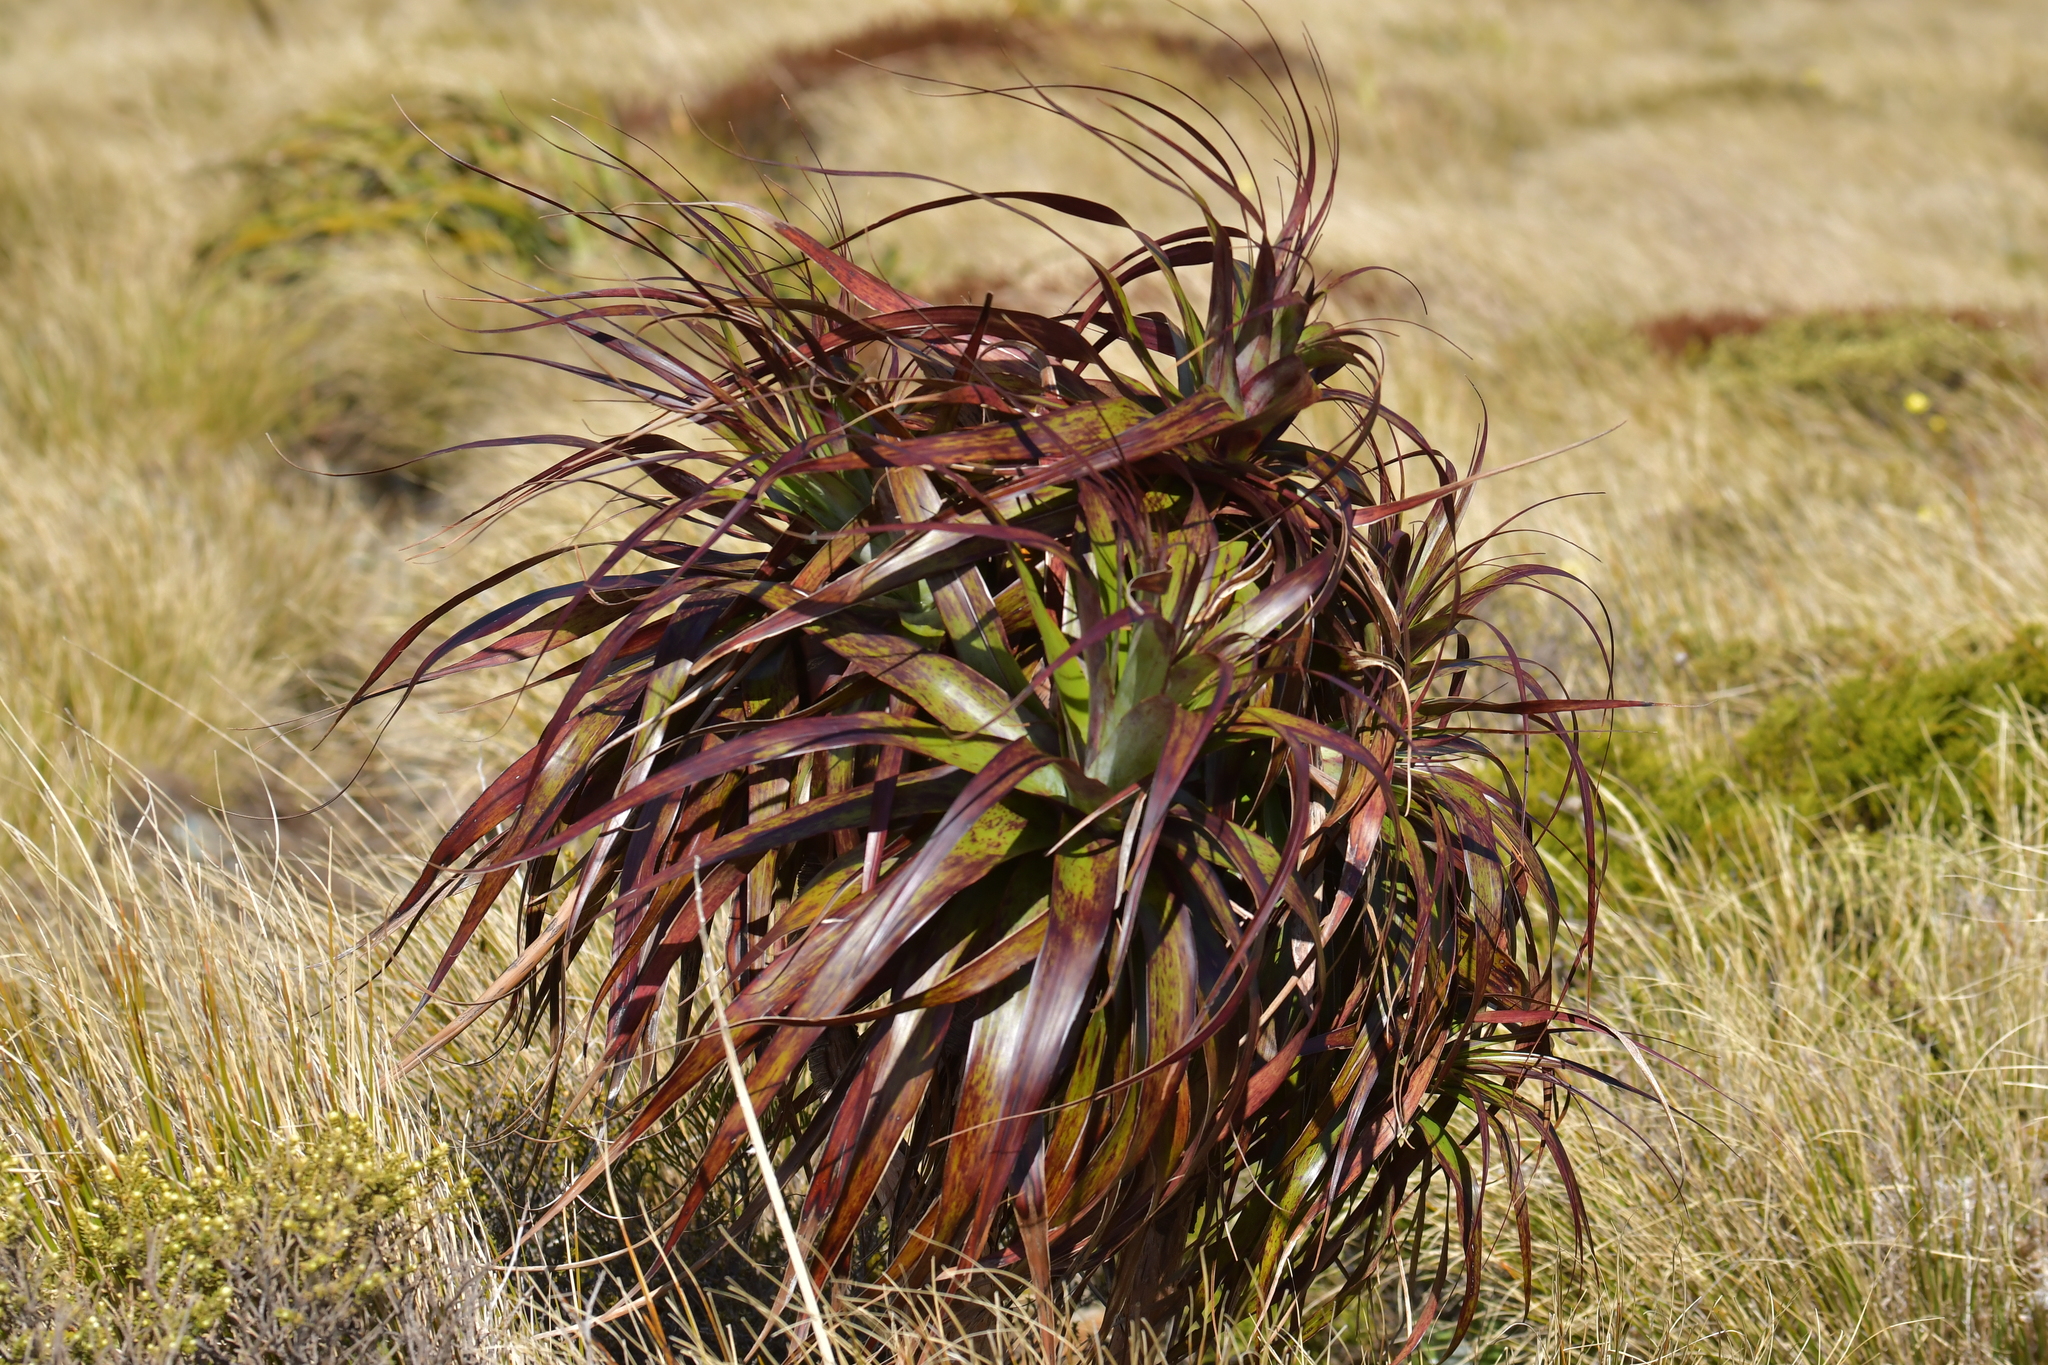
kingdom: Plantae
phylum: Tracheophyta
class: Magnoliopsida
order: Ericales
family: Ericaceae
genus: Dracophyllum
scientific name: Dracophyllum traversii
